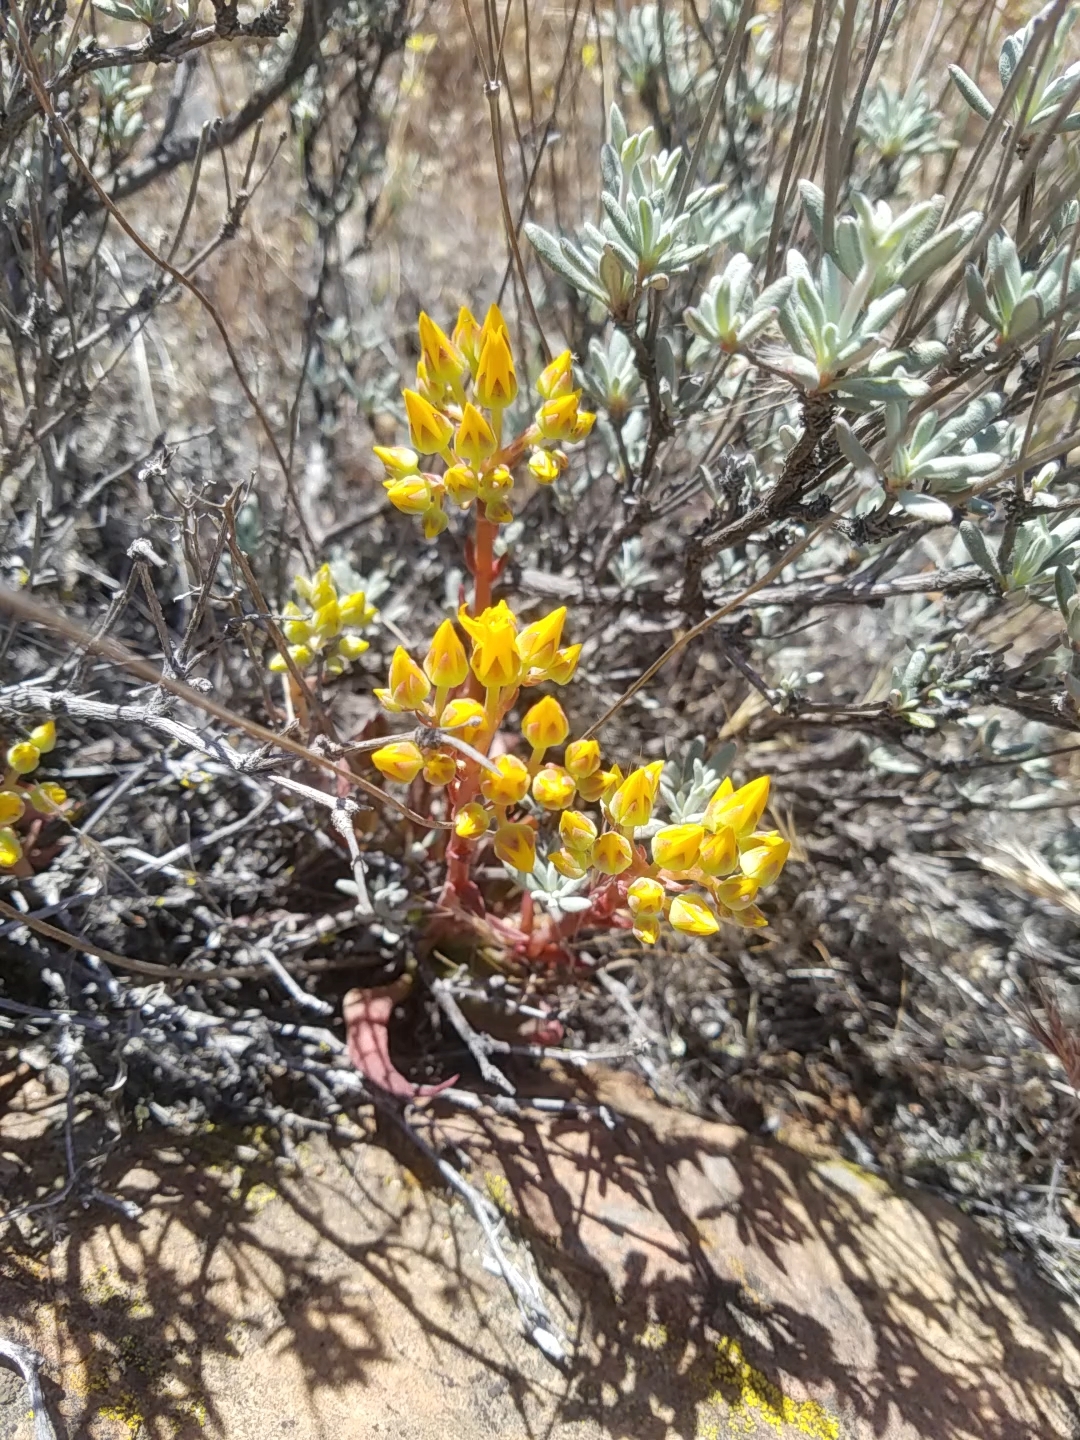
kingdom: Plantae
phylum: Tracheophyta
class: Magnoliopsida
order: Saxifragales
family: Crassulaceae
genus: Dudleya
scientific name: Dudleya cymosa
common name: Canyon dudleya
